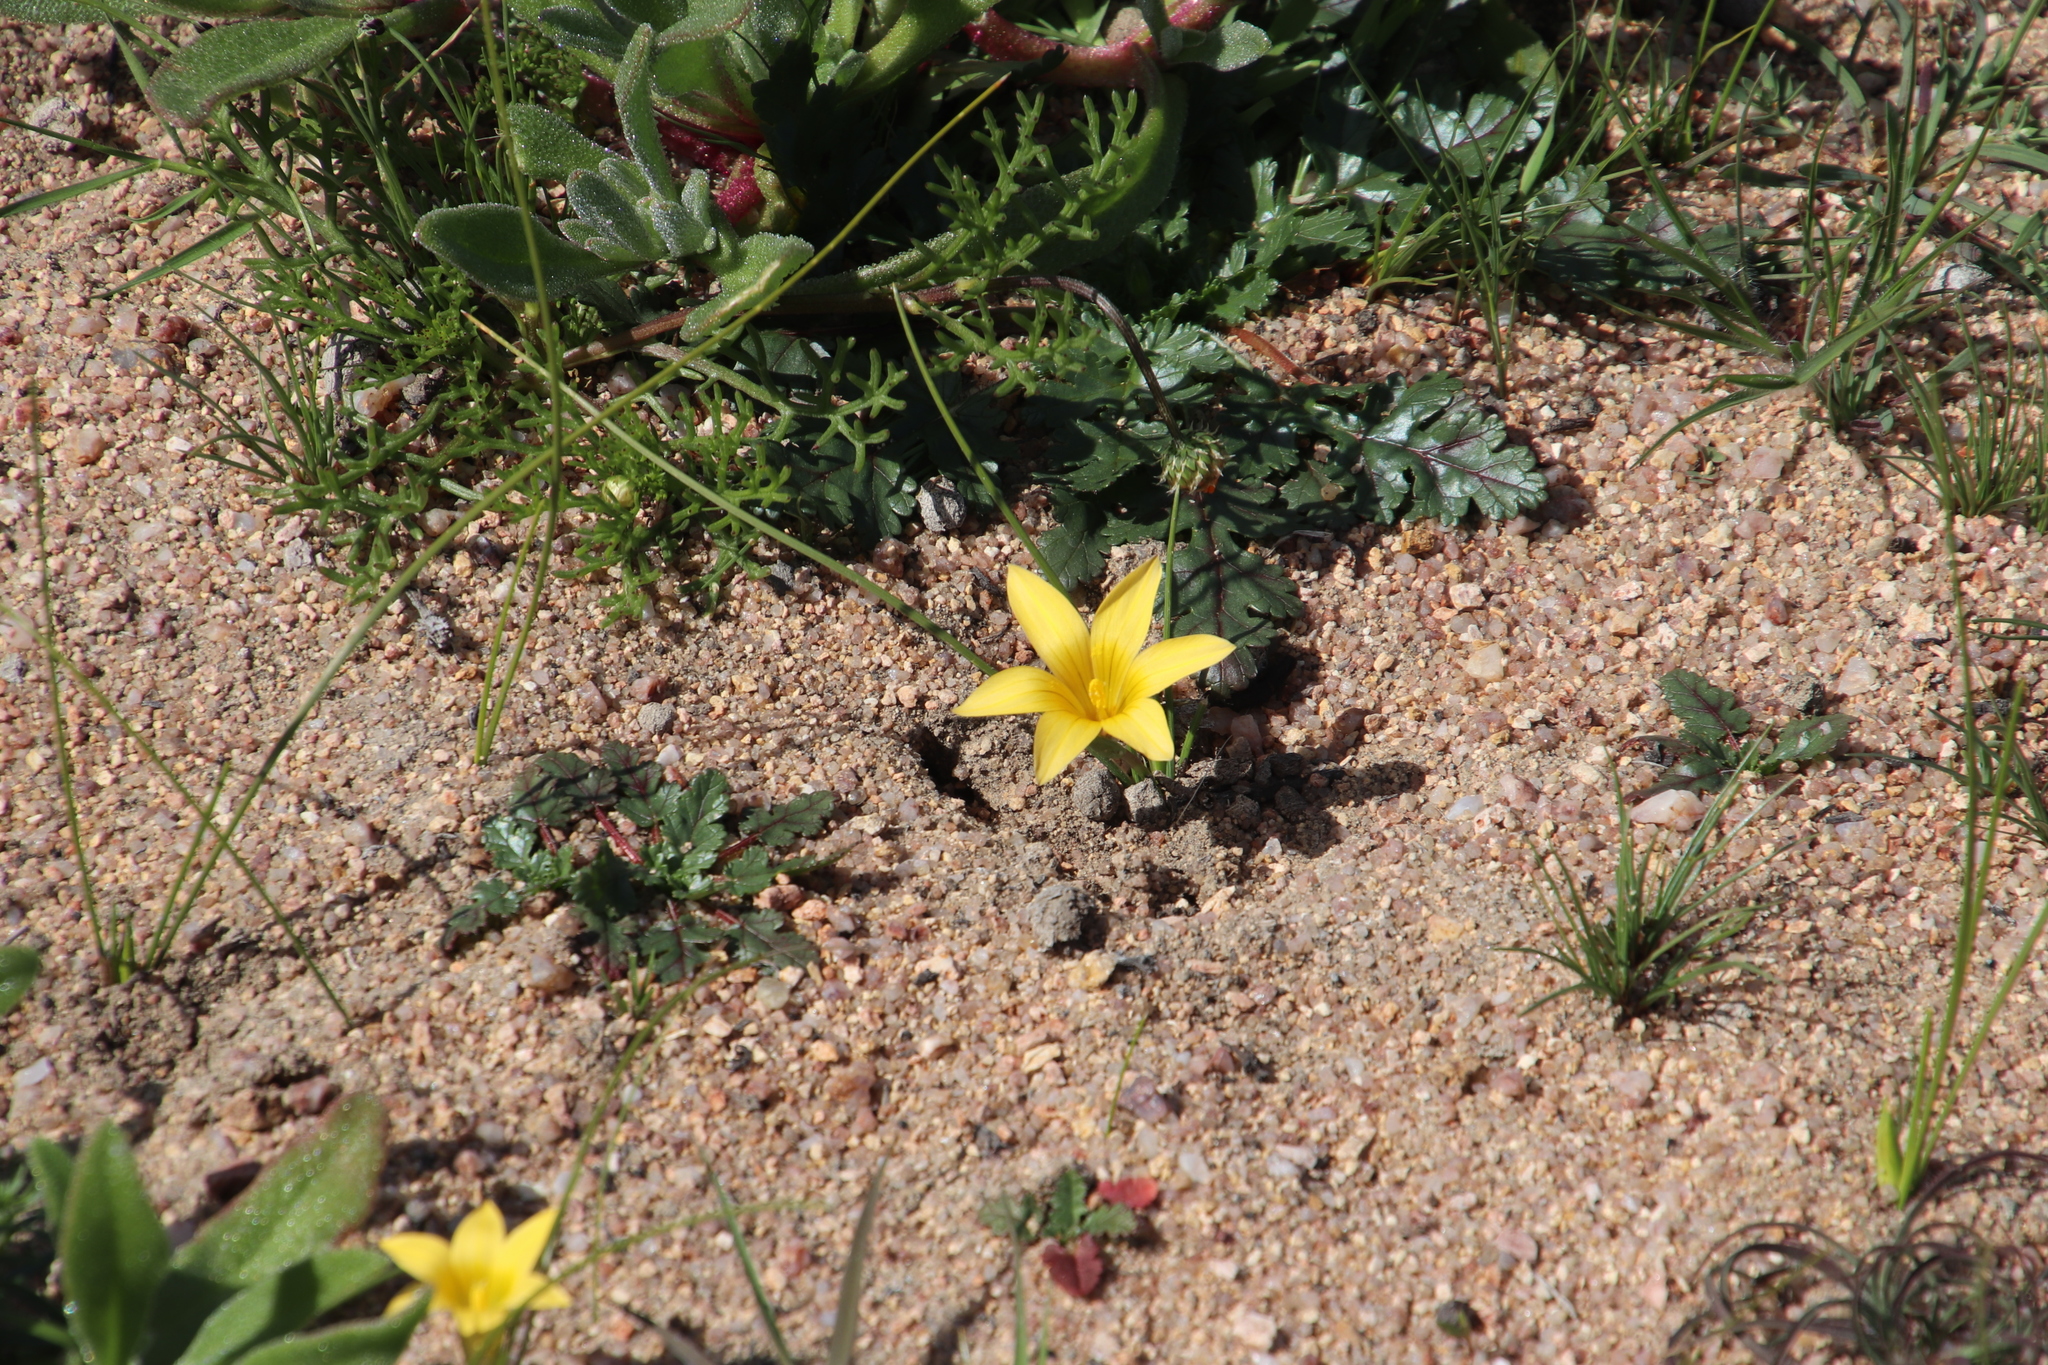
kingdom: Plantae
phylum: Tracheophyta
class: Liliopsida
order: Asparagales
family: Iridaceae
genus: Romulea
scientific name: Romulea citrina
